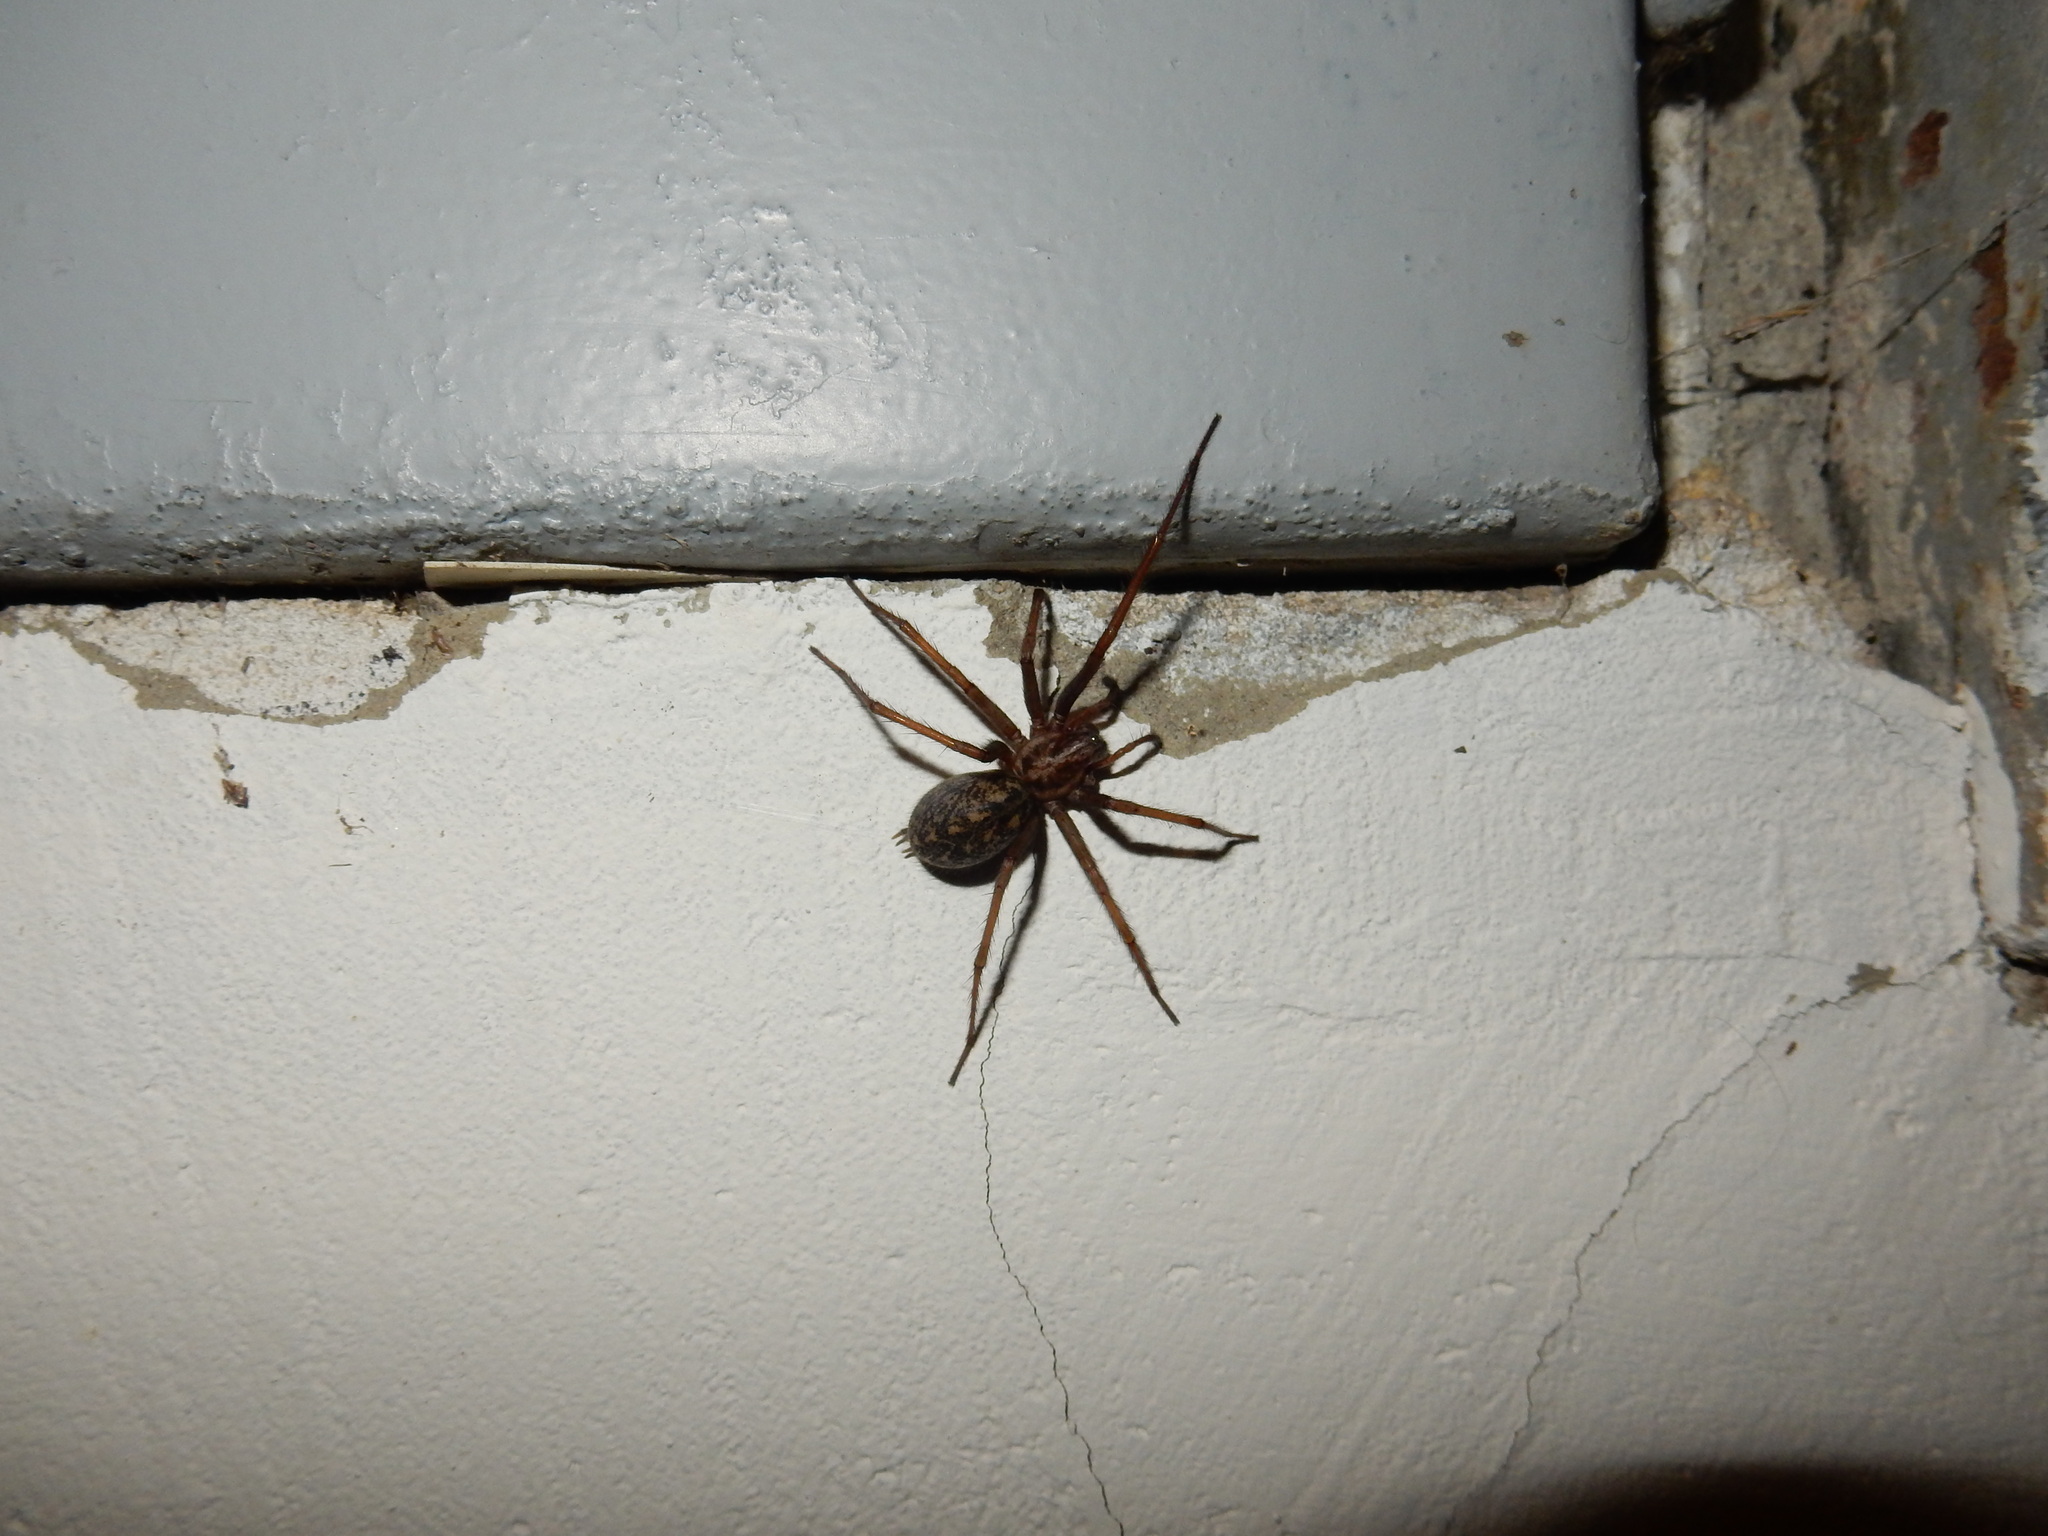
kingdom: Animalia
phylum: Arthropoda
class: Arachnida
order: Araneae
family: Agelenidae
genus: Eratigena
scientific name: Eratigena atrica
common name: Giant house spider
